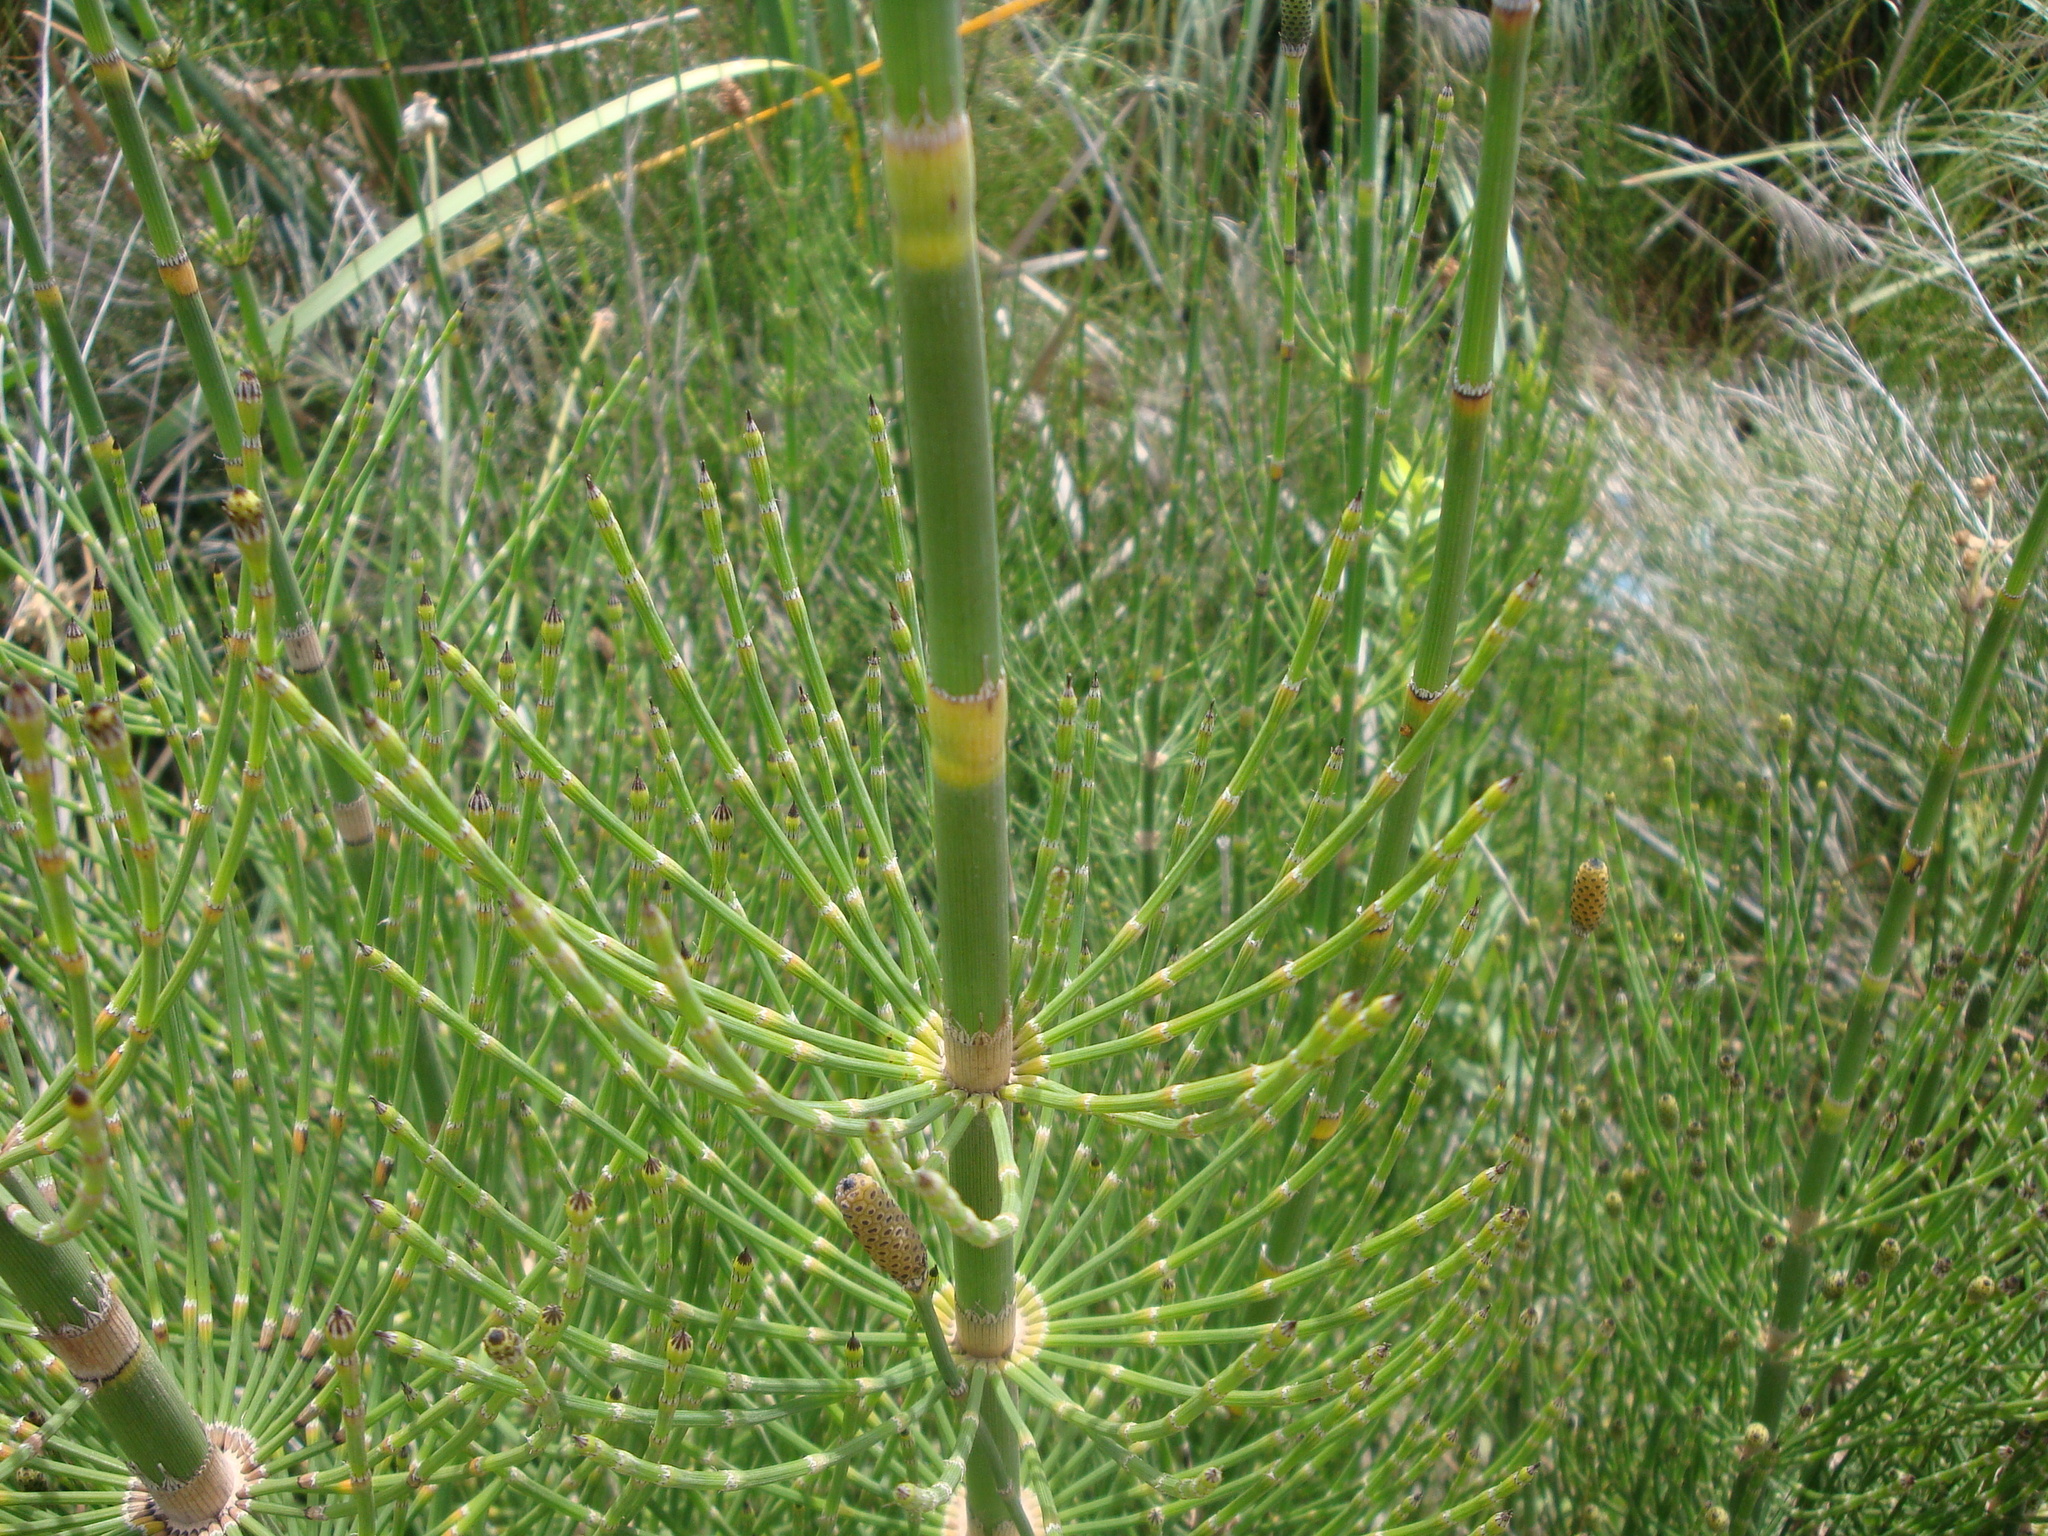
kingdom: Plantae
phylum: Tracheophyta
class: Polypodiopsida
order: Equisetales
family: Equisetaceae
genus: Equisetum
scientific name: Equisetum giganteum
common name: Giant horsetail
